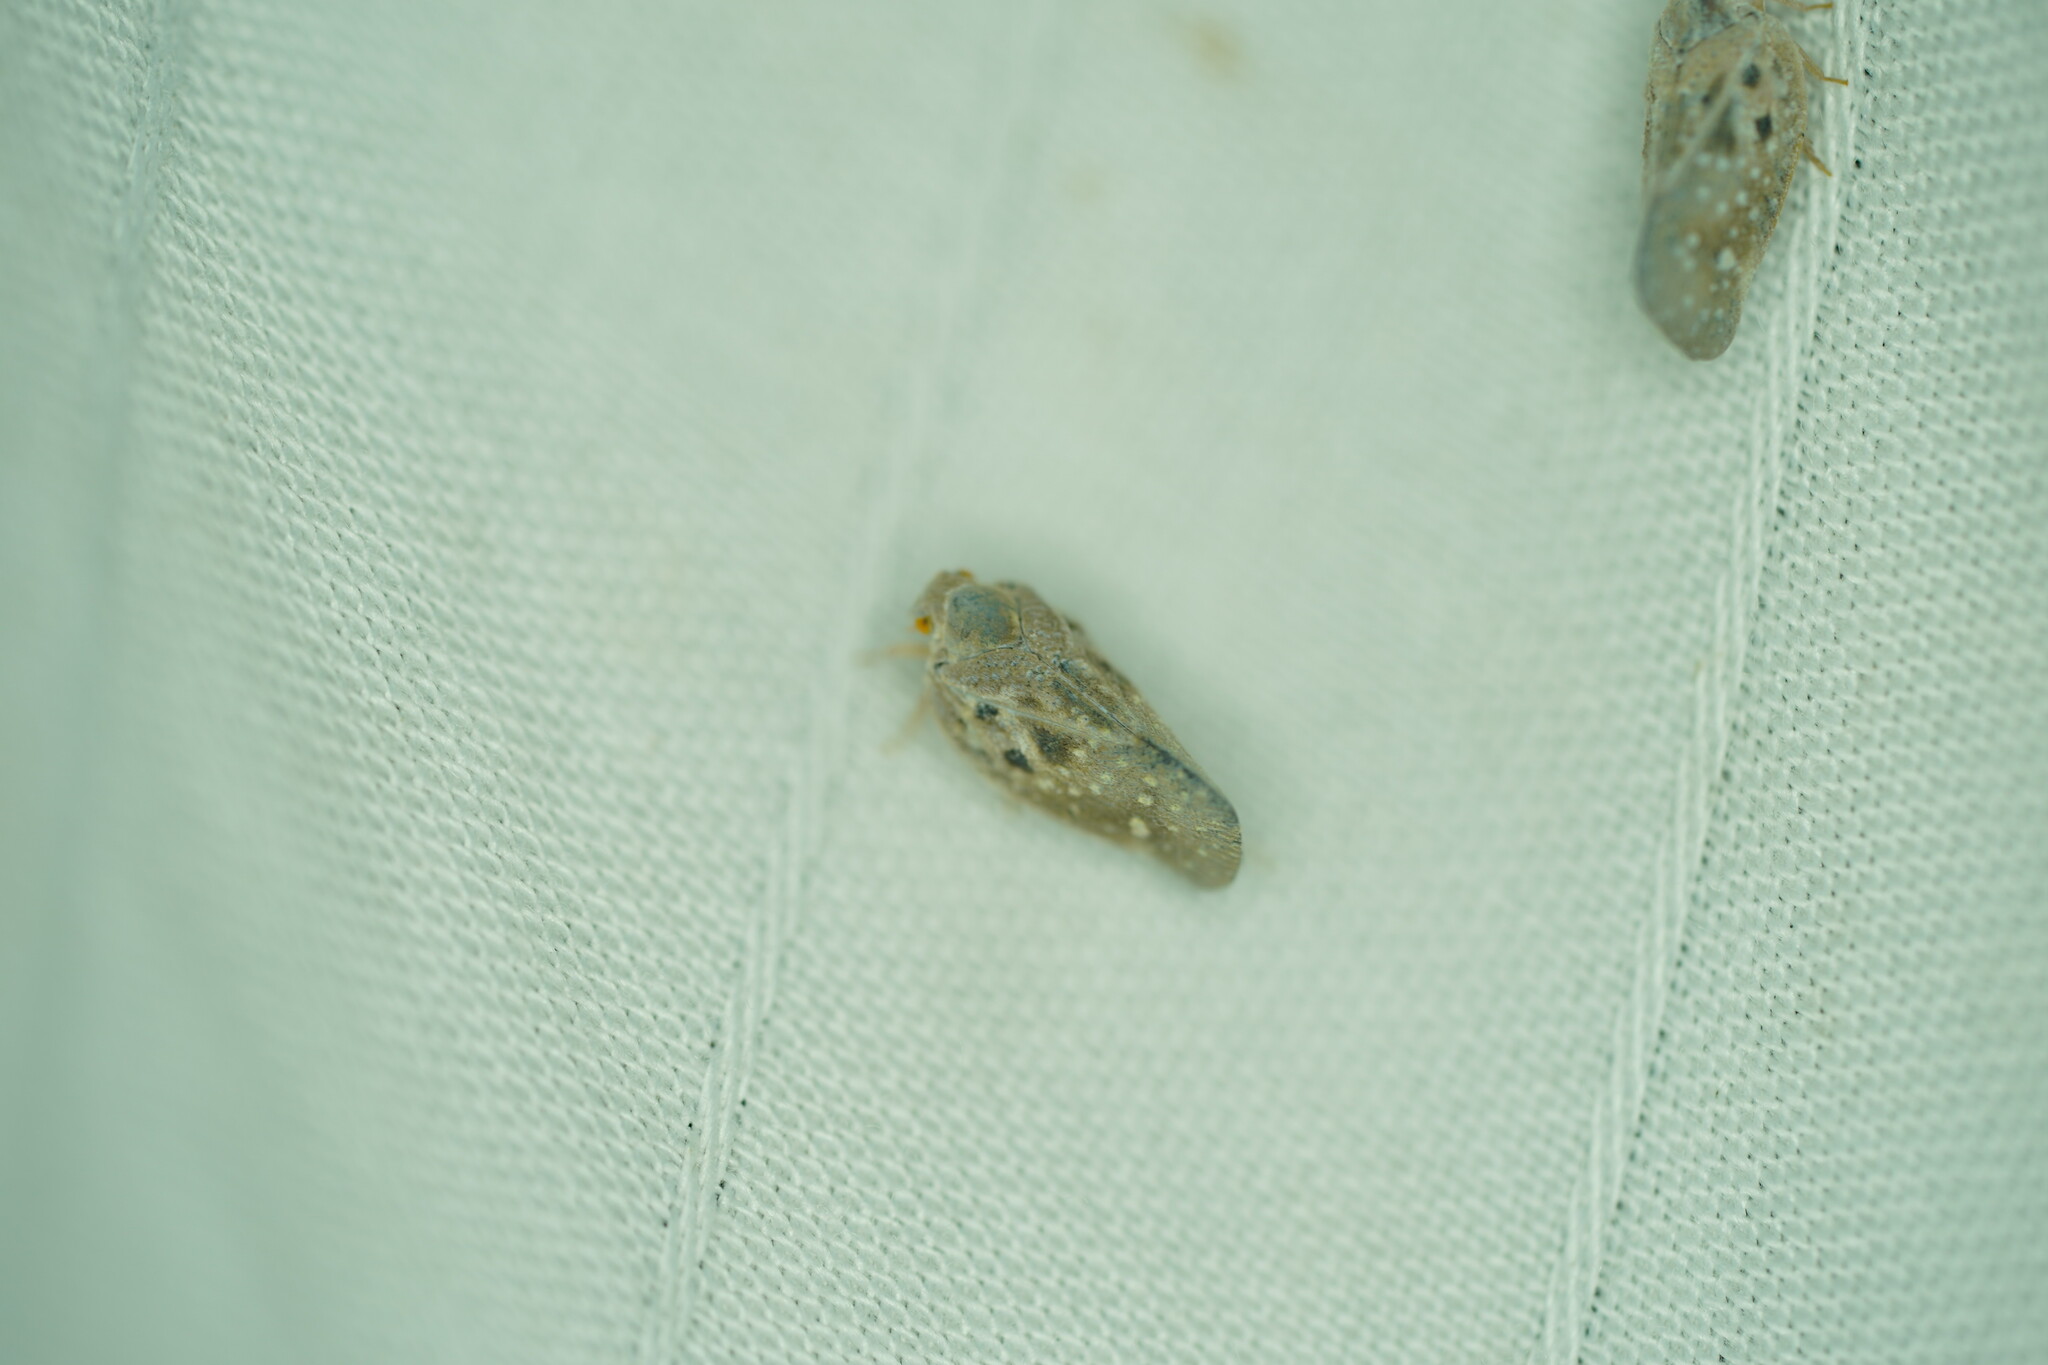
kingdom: Animalia
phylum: Arthropoda
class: Insecta
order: Hemiptera
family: Flatidae
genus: Metcalfa
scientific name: Metcalfa pruinosa
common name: Citrus flatid planthopper
